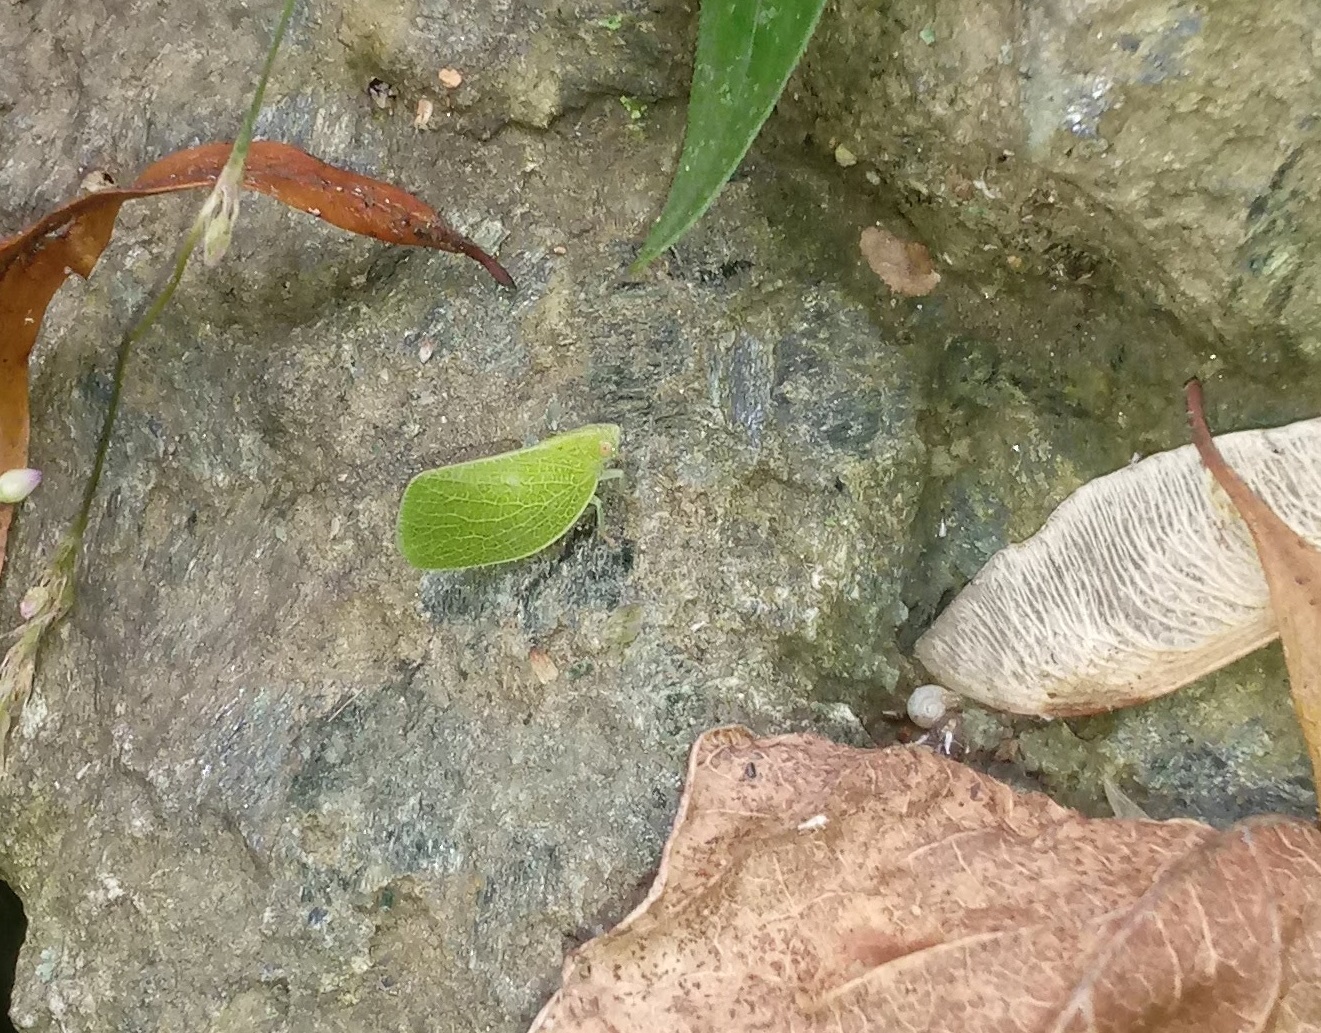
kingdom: Animalia
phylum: Arthropoda
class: Insecta
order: Hemiptera
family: Acanaloniidae
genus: Acanalonia
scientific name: Acanalonia conica
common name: Green cone-headed planthopper
